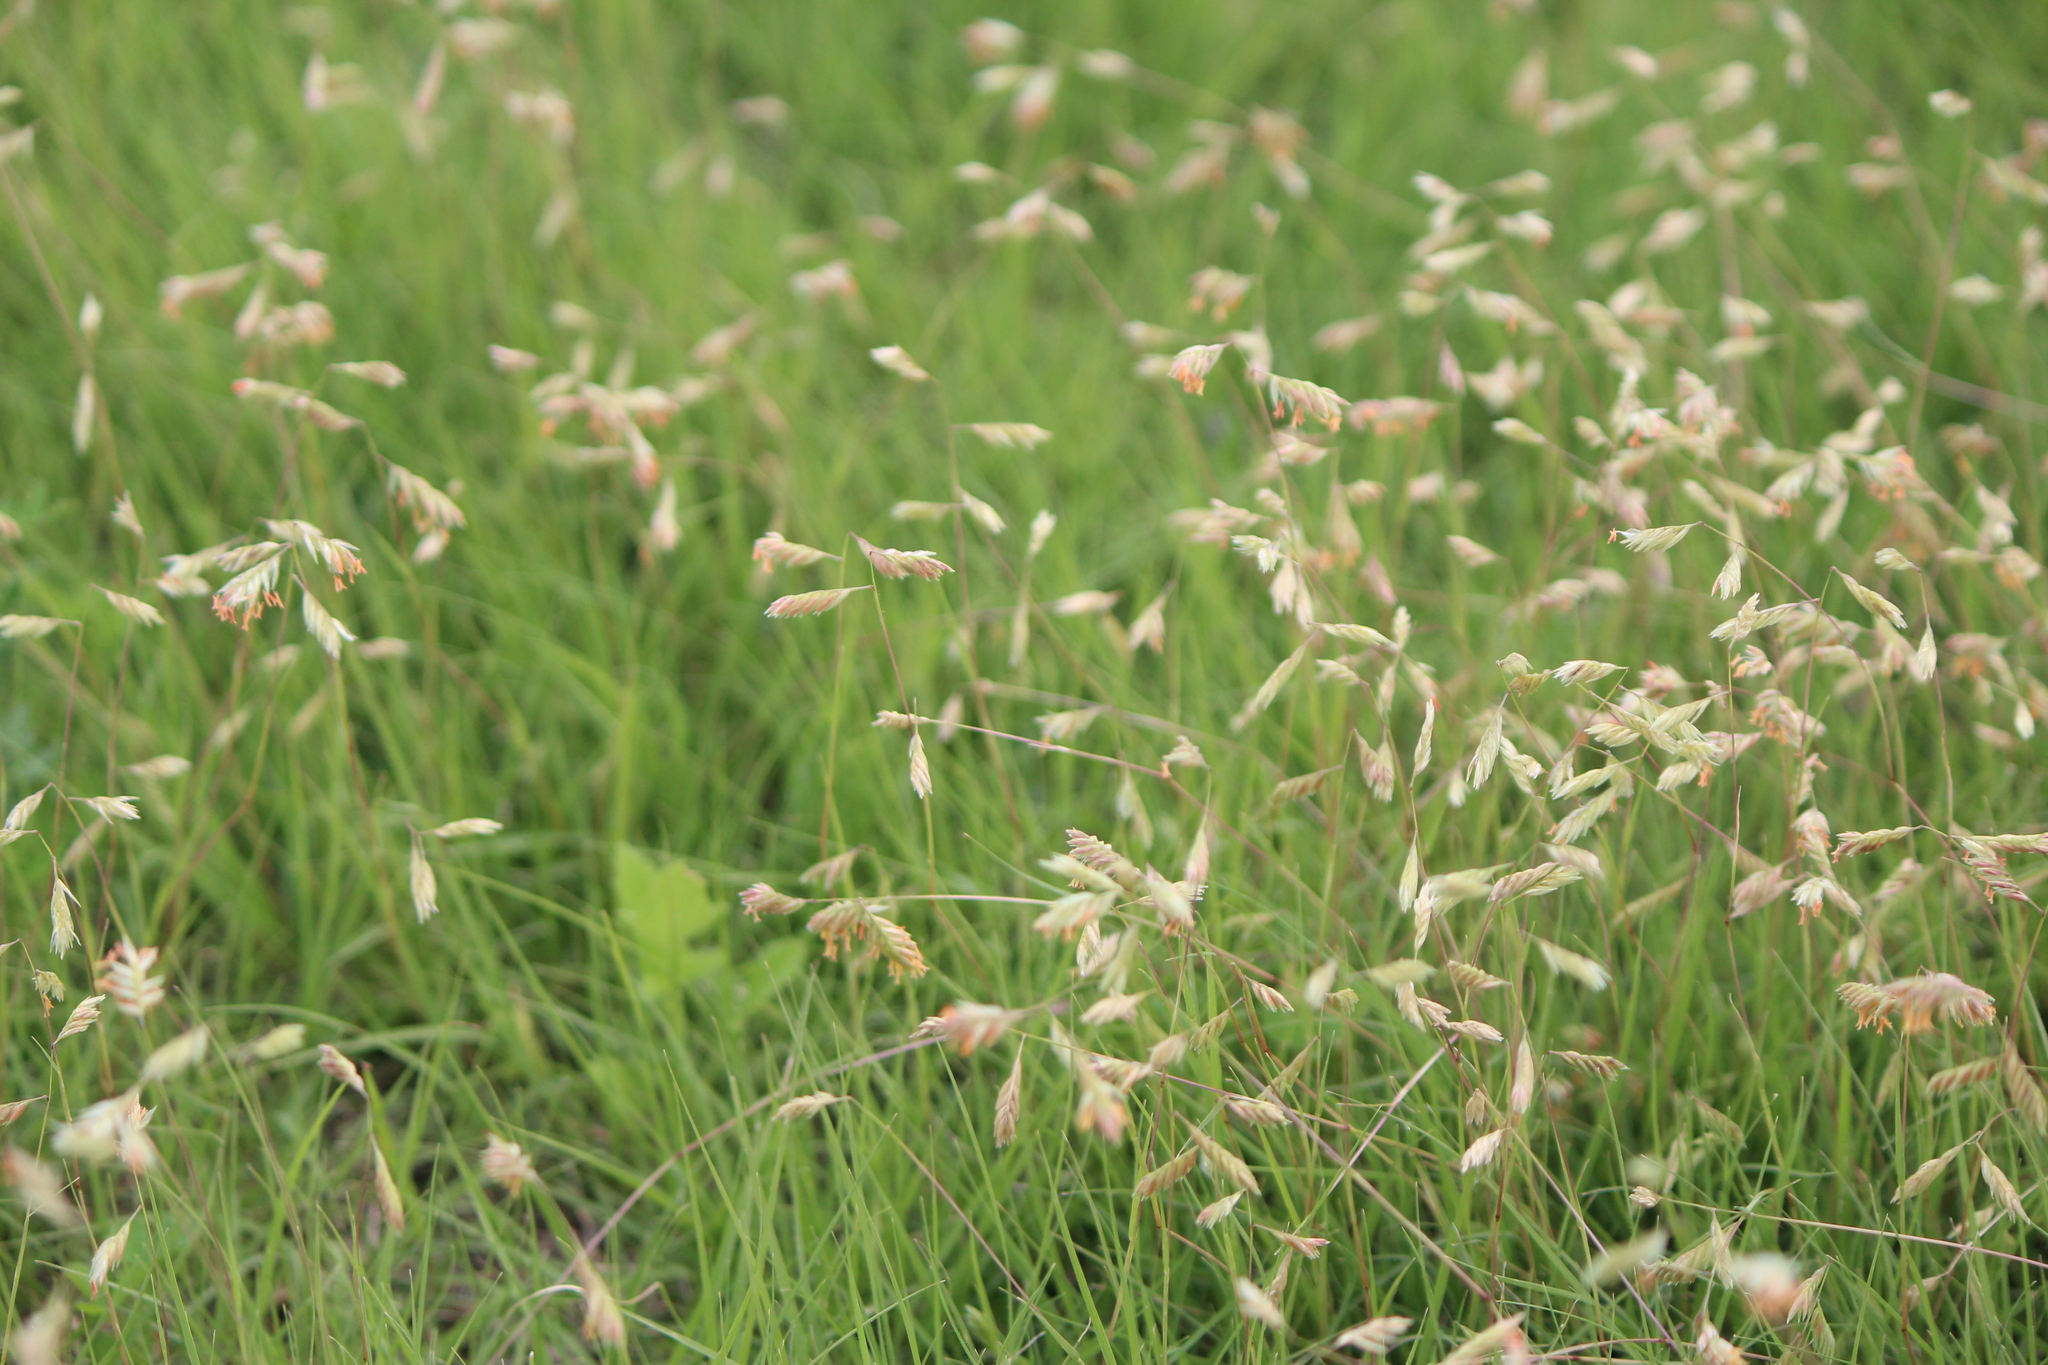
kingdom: Plantae
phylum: Tracheophyta
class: Liliopsida
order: Poales
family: Poaceae
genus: Bouteloua
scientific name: Bouteloua dactyloides
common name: Buffalo grass
